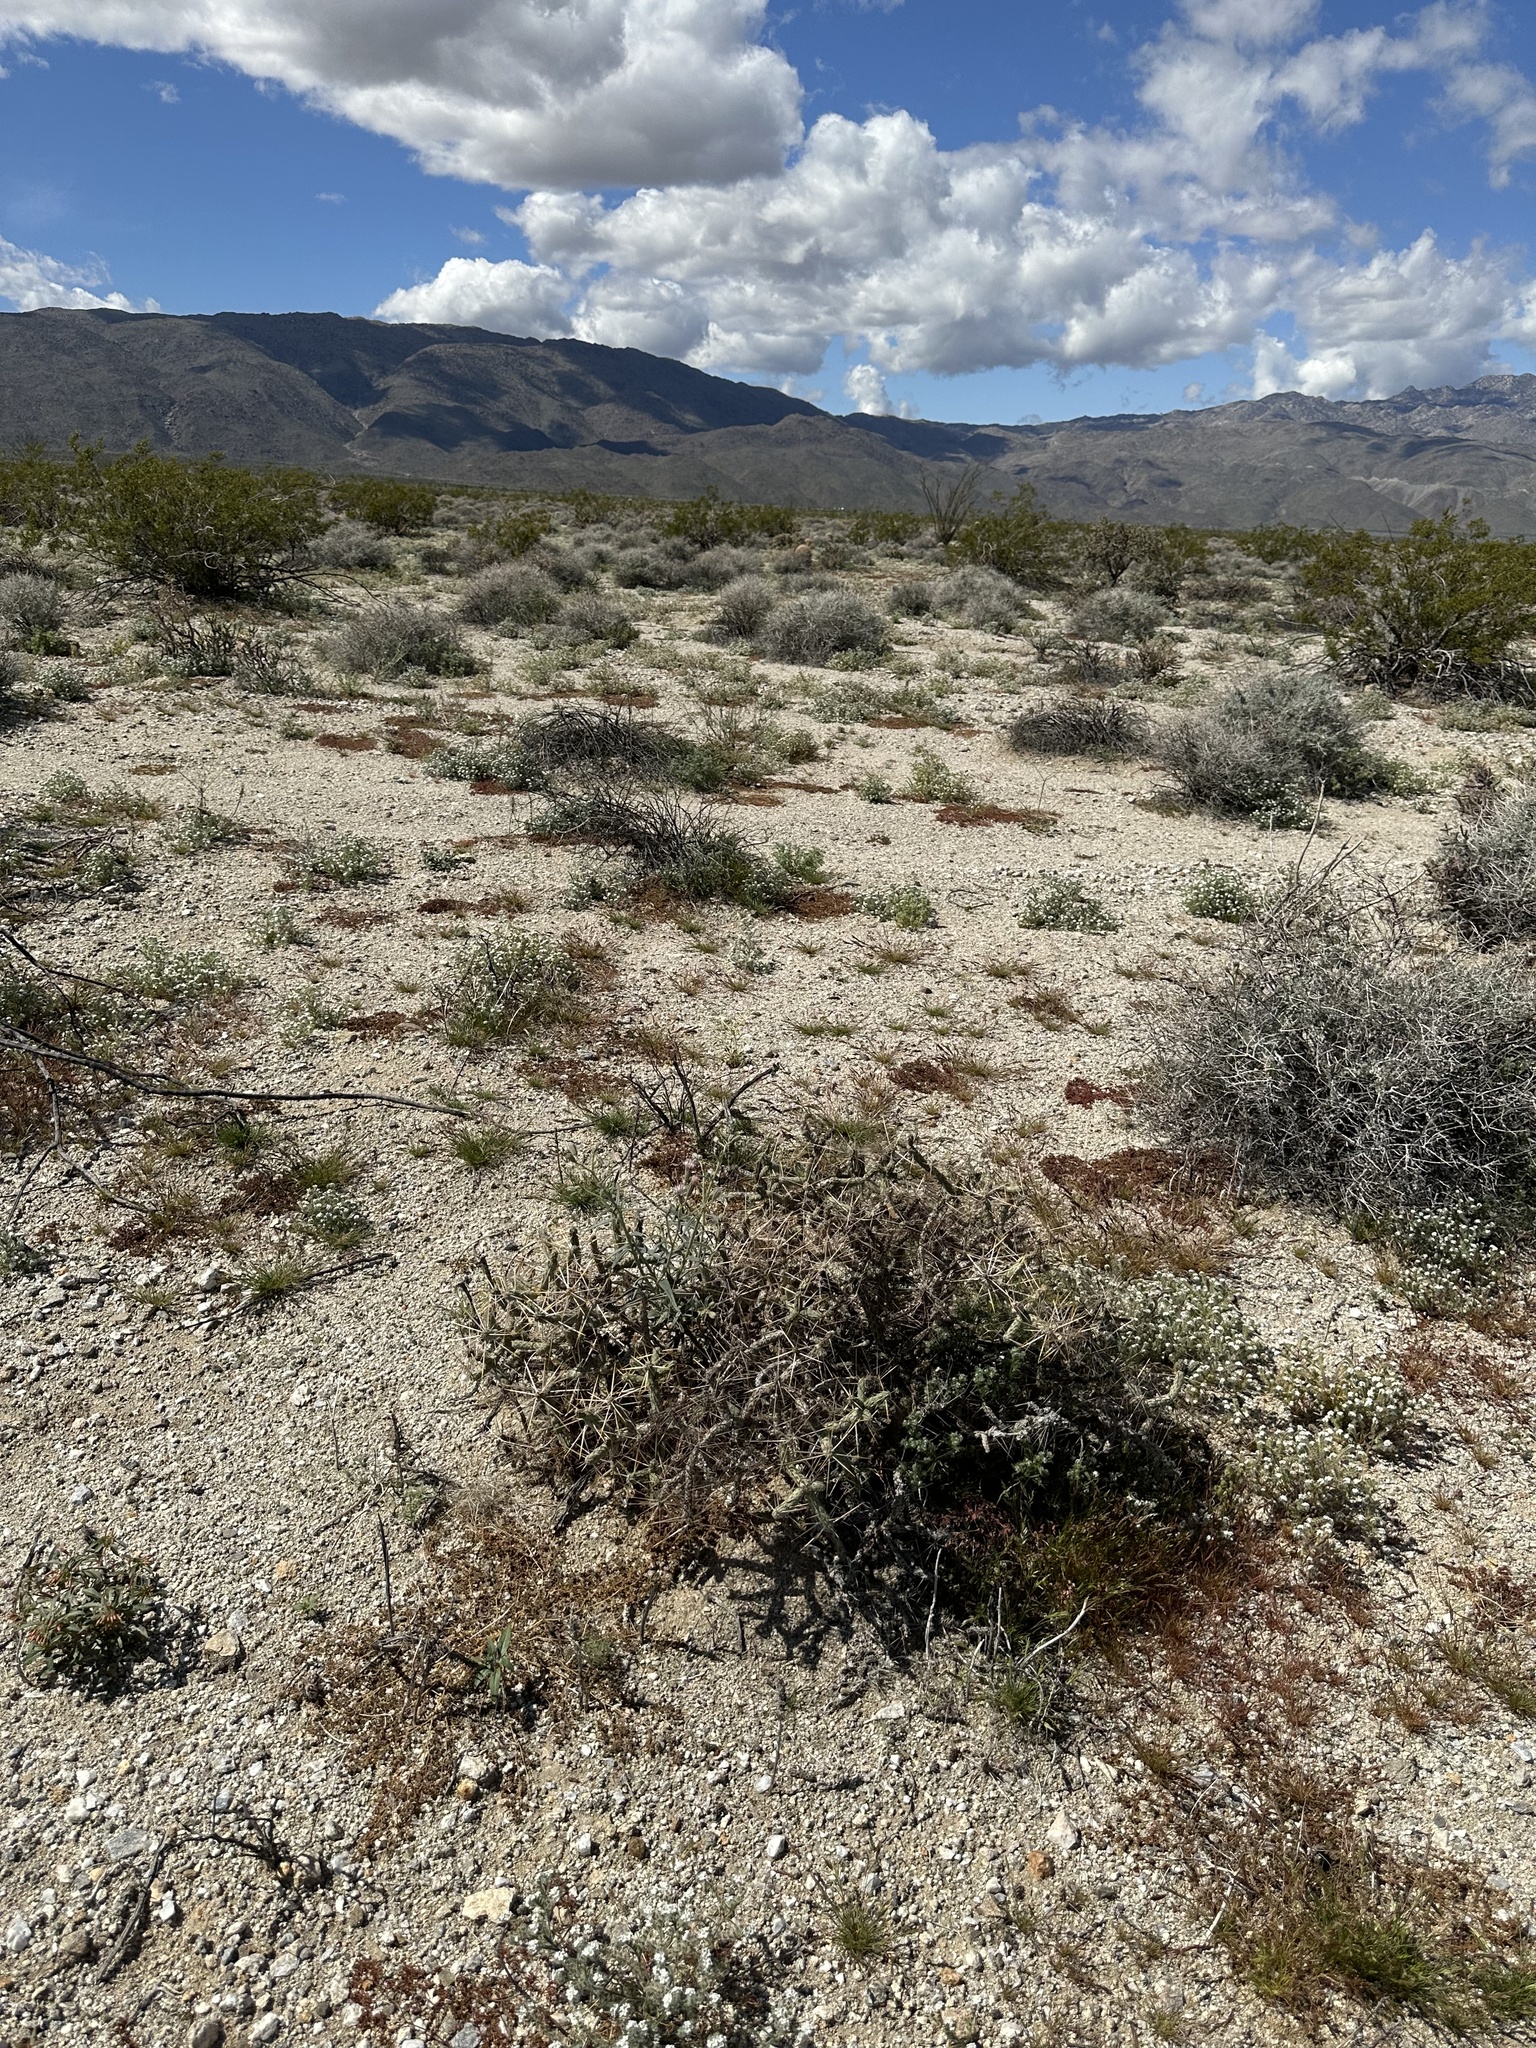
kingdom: Plantae
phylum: Tracheophyta
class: Magnoliopsida
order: Caryophyllales
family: Cactaceae
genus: Cylindropuntia
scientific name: Cylindropuntia ramosissima
